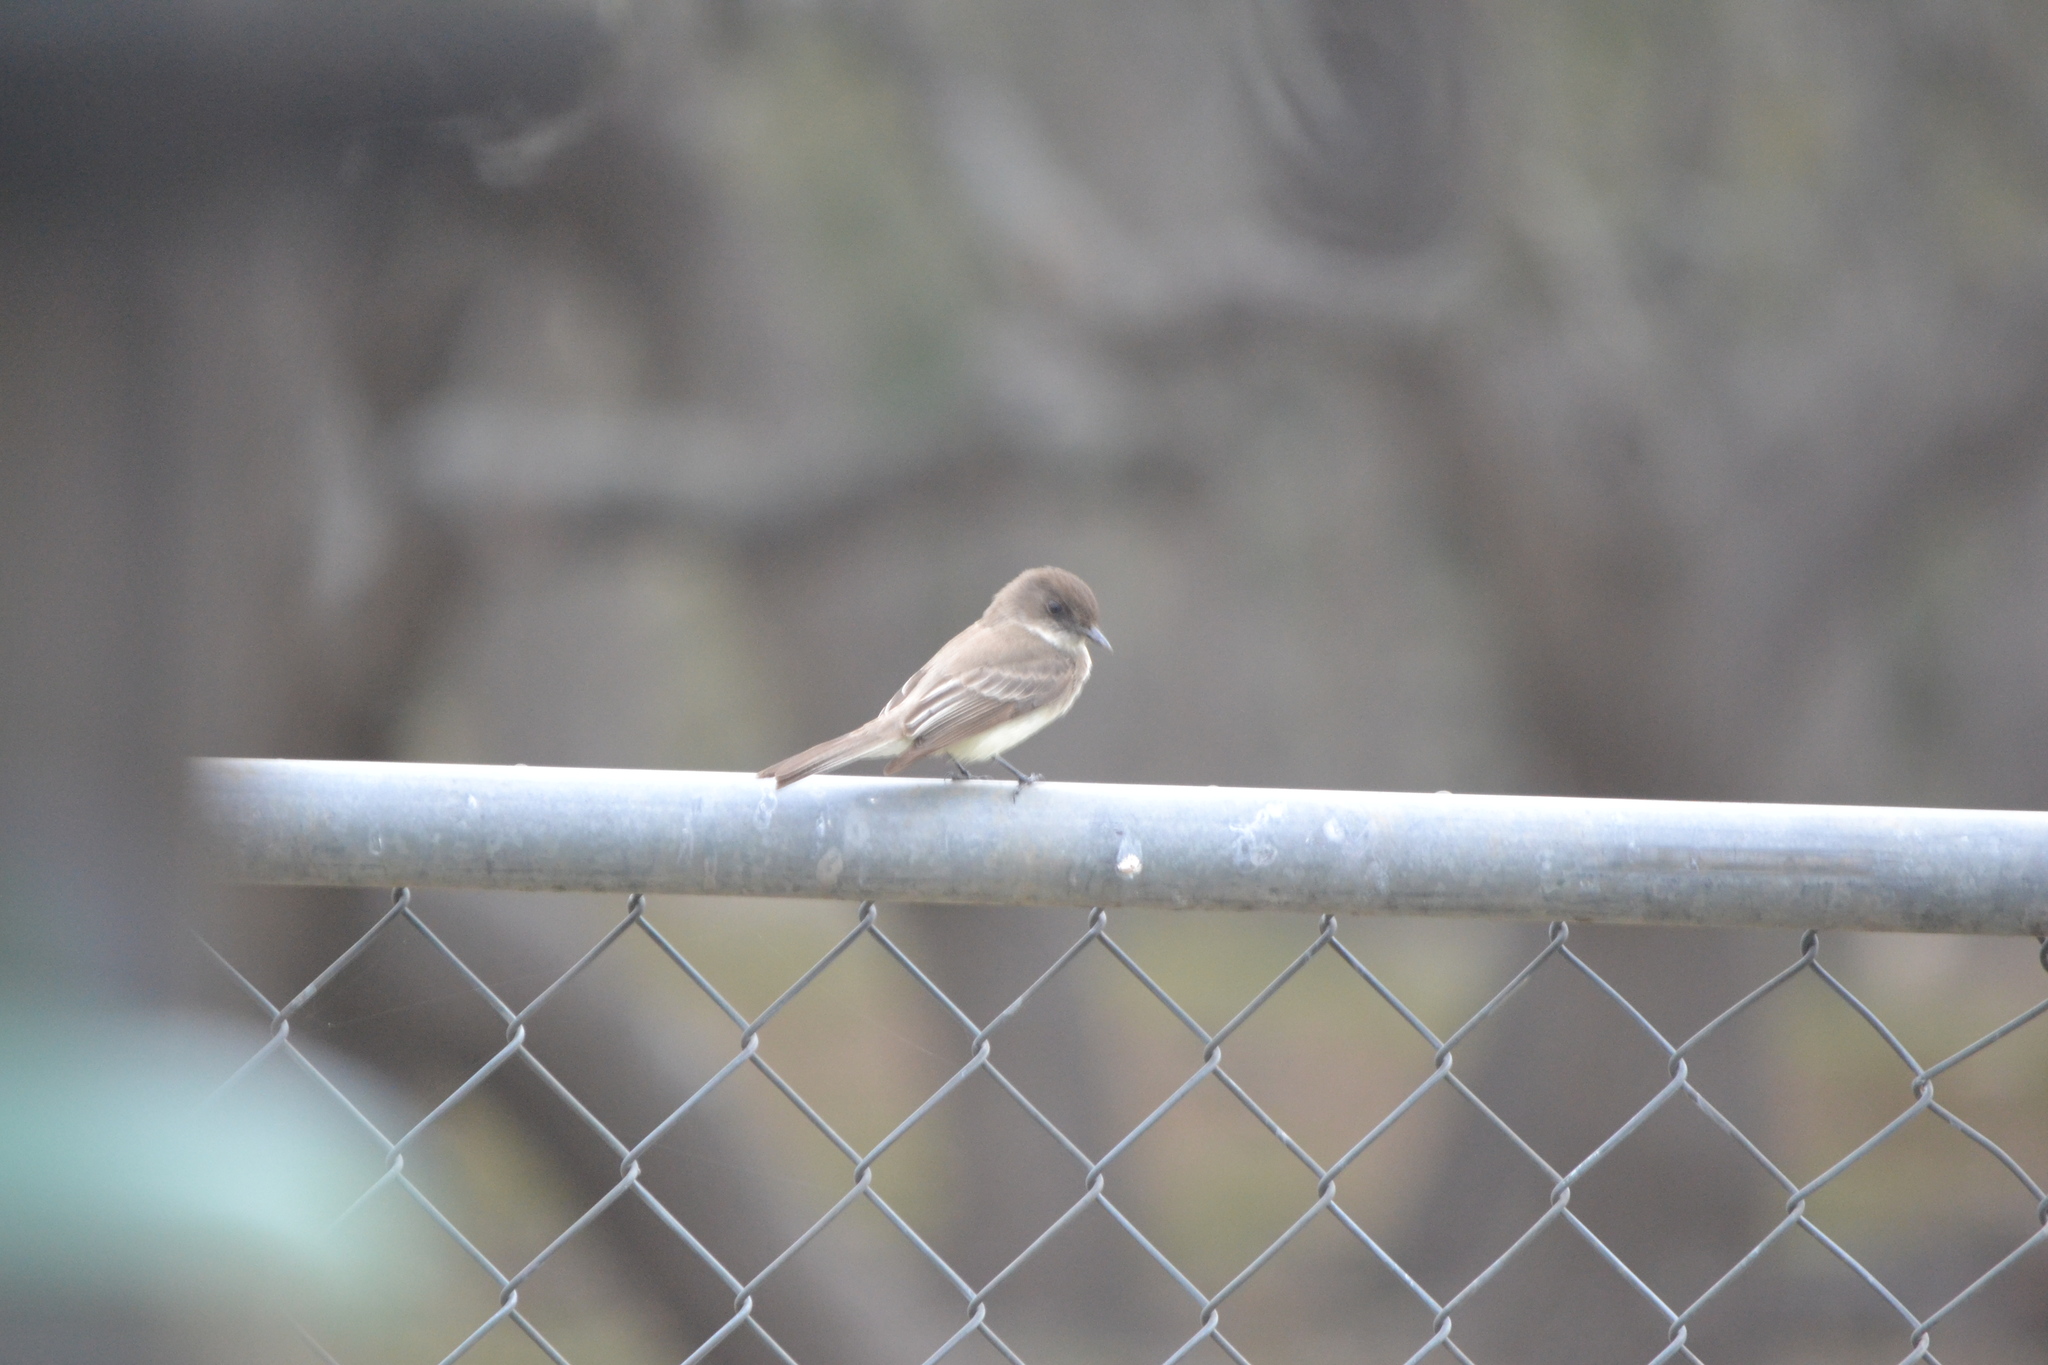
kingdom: Animalia
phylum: Chordata
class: Aves
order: Passeriformes
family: Tyrannidae
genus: Sayornis
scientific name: Sayornis phoebe
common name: Eastern phoebe
